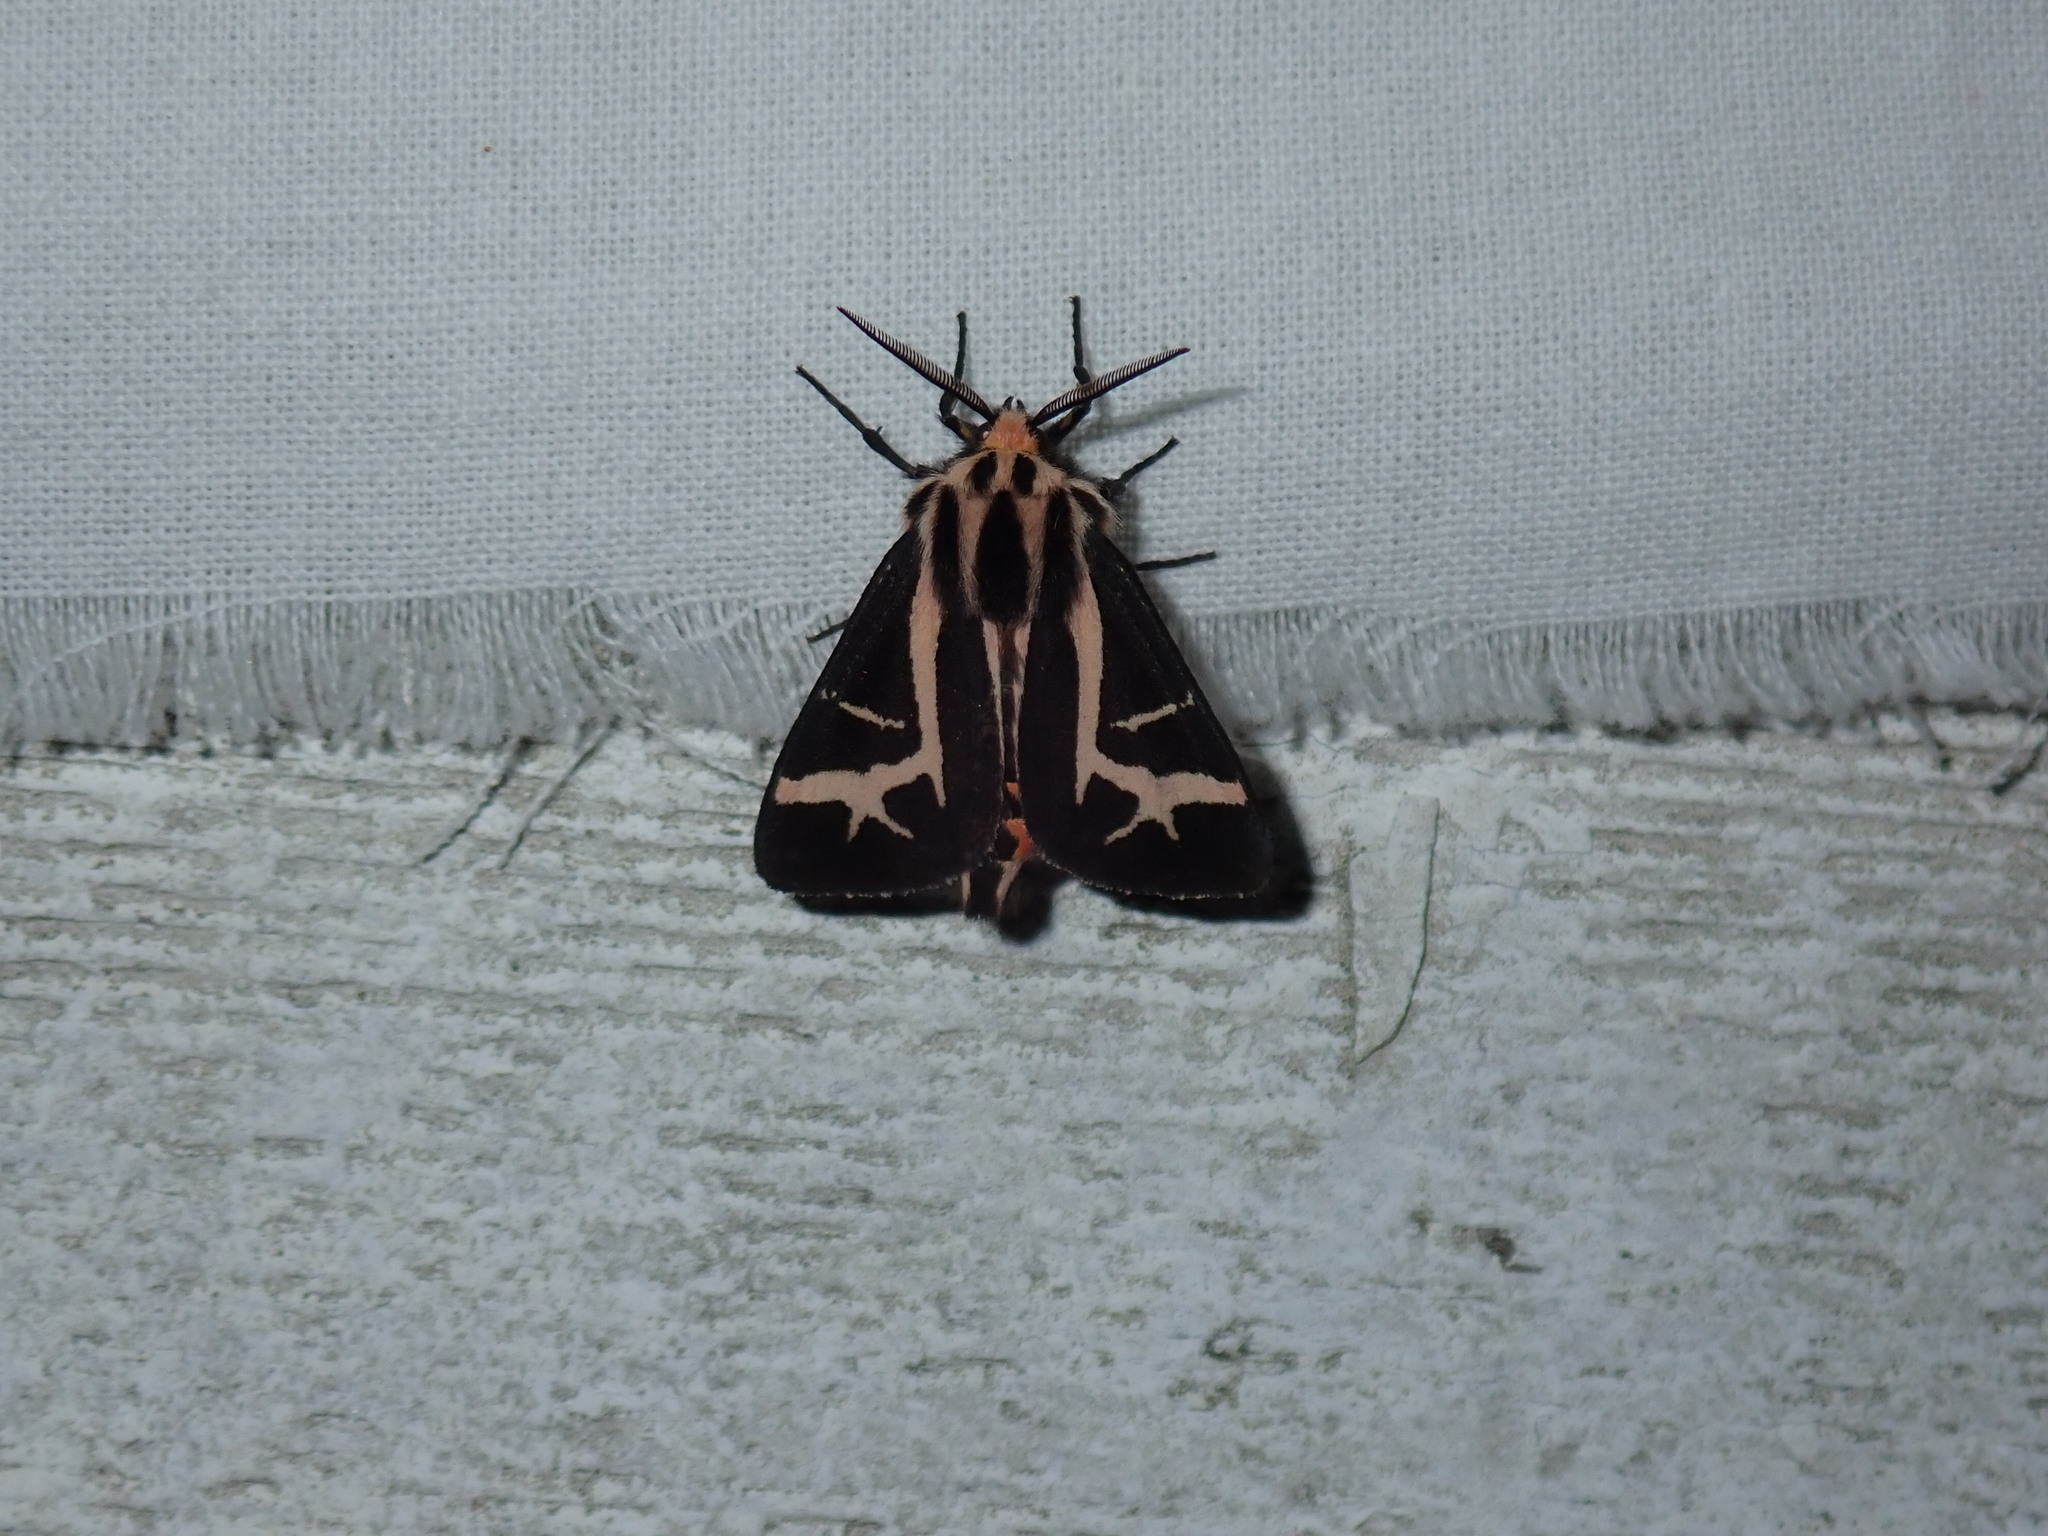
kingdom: Animalia
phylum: Arthropoda
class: Insecta
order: Lepidoptera
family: Erebidae
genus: Apantesis
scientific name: Apantesis
